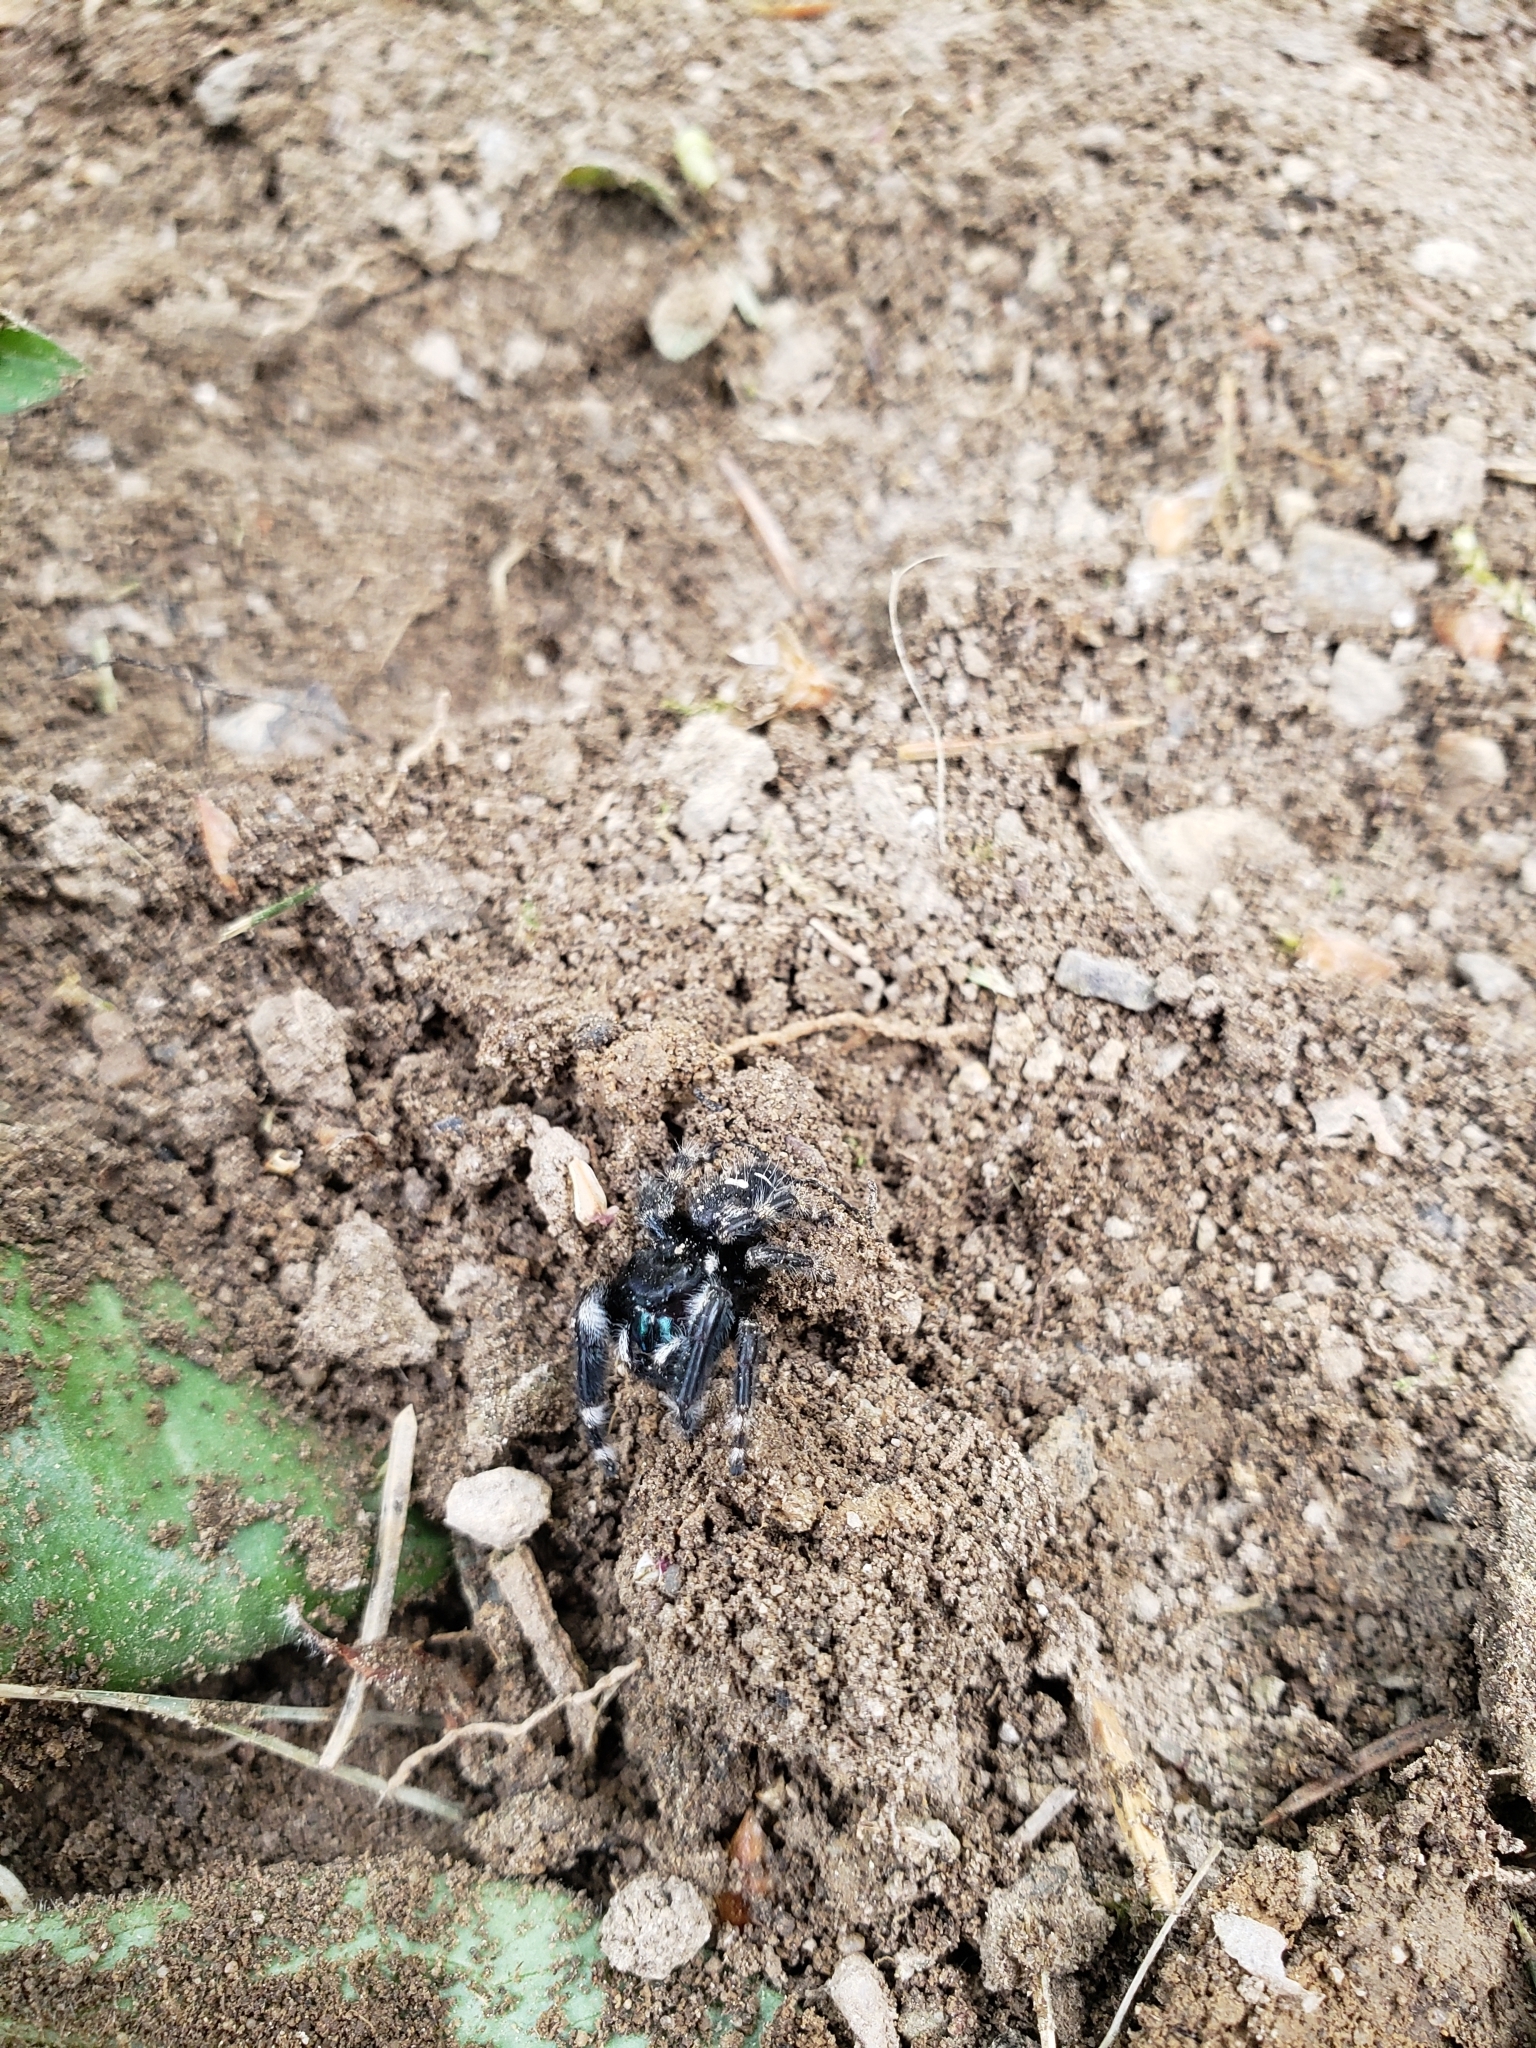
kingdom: Animalia
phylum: Arthropoda
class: Arachnida
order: Araneae
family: Salticidae
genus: Phidippus
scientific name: Phidippus audax
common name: Bold jumper
